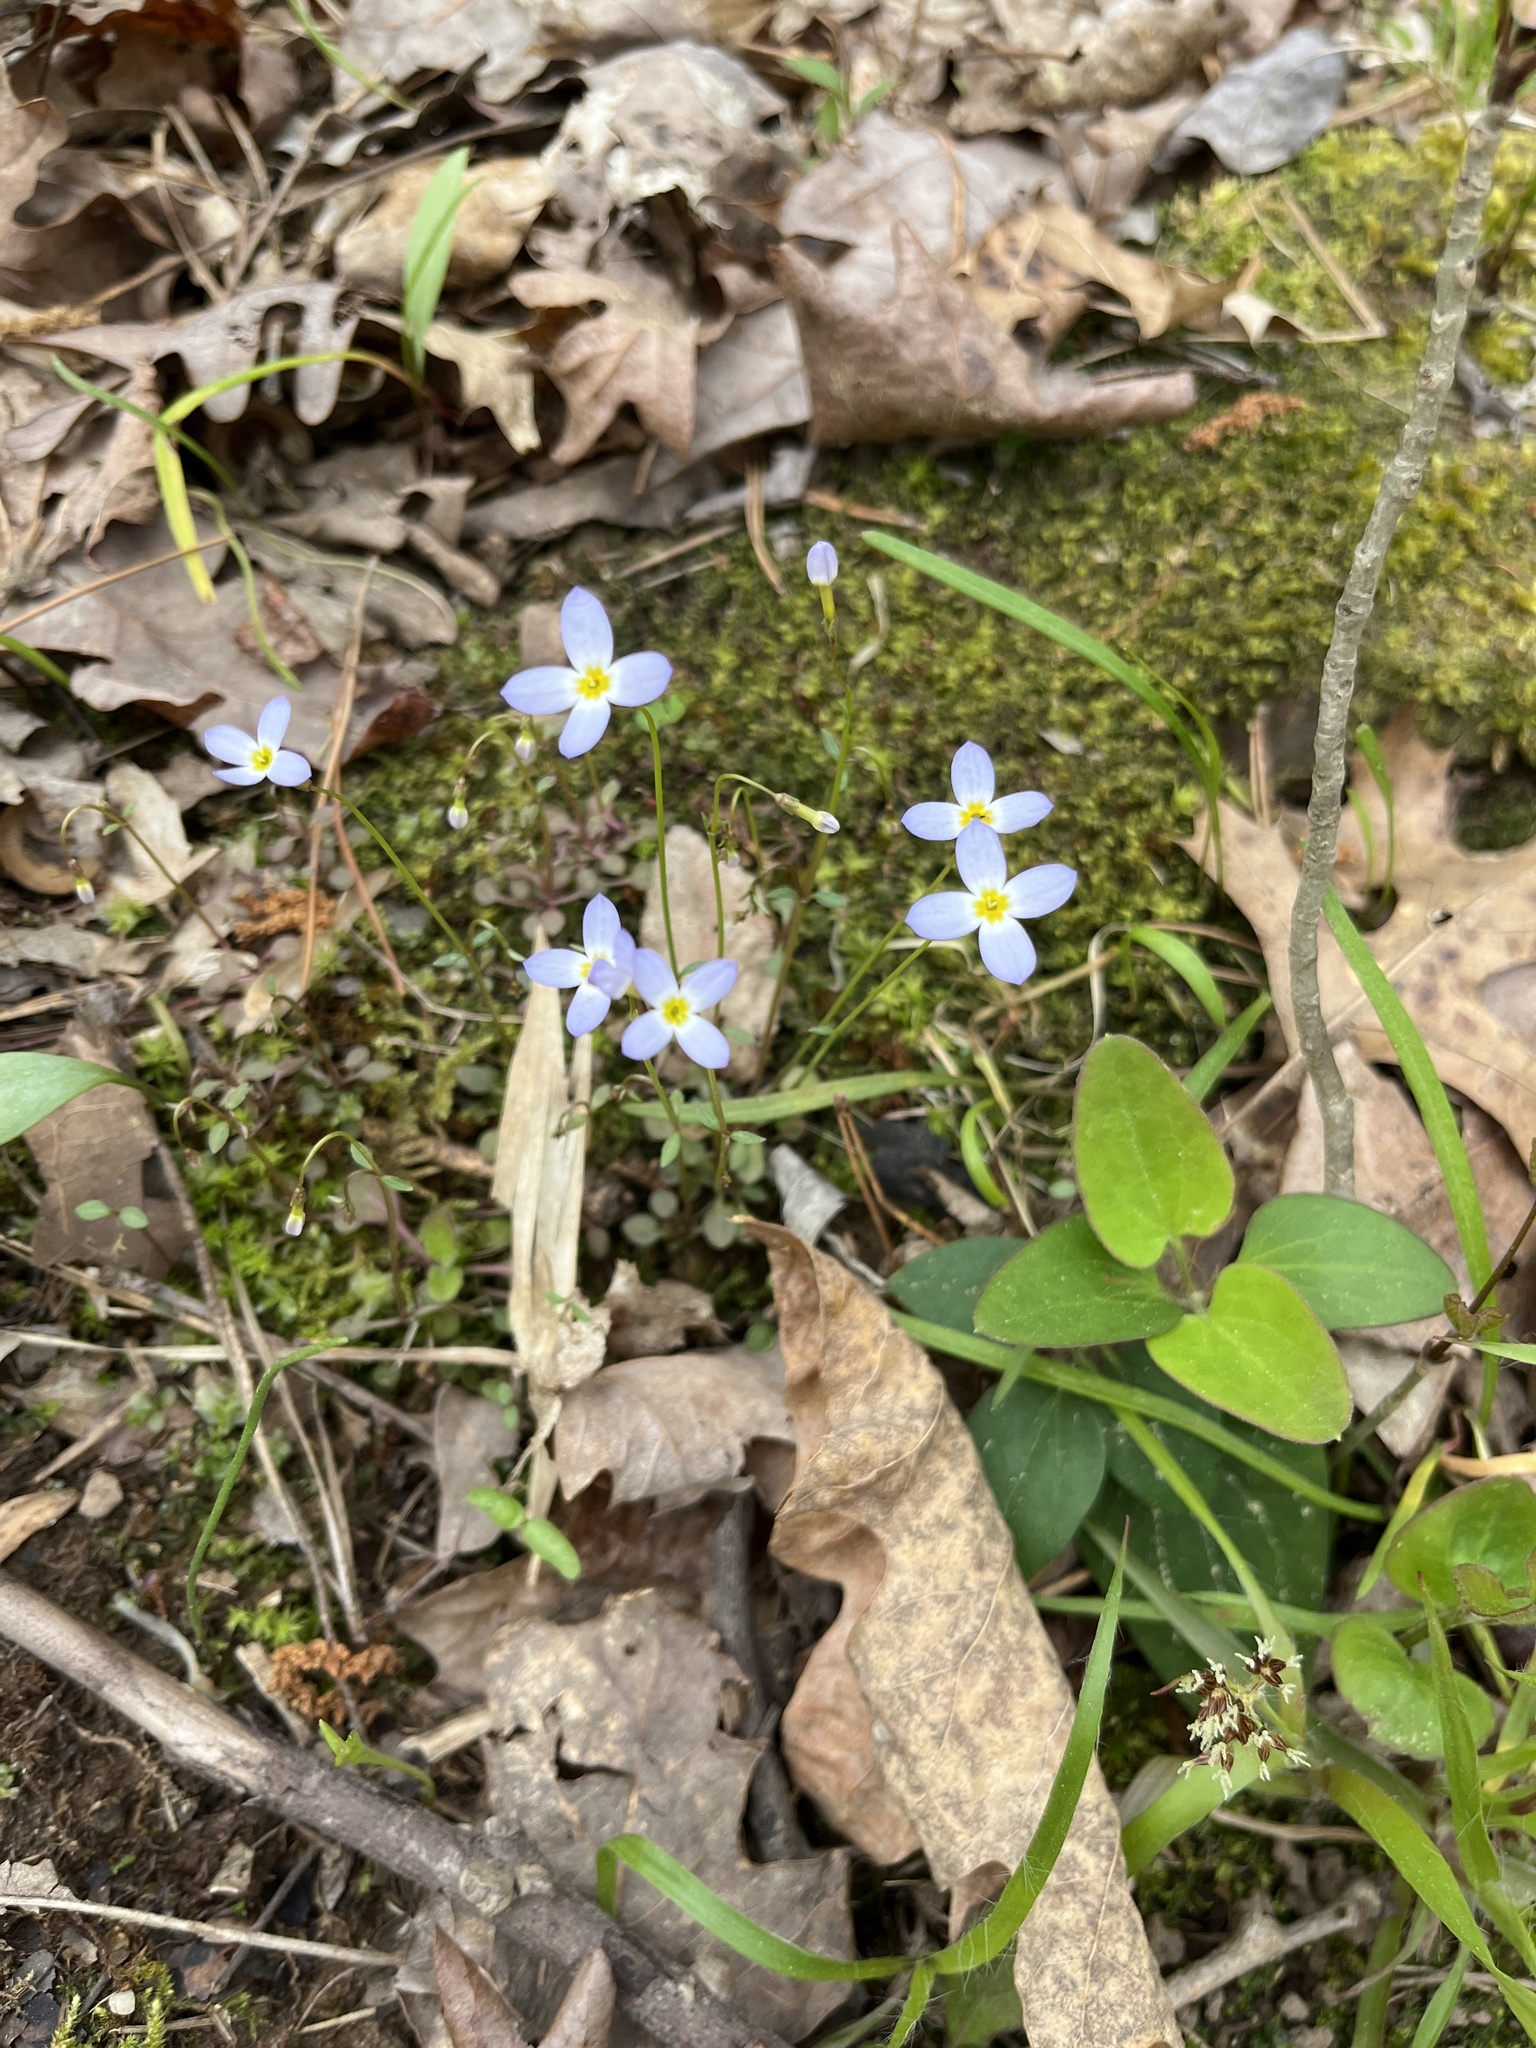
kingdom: Plantae
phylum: Tracheophyta
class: Magnoliopsida
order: Gentianales
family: Rubiaceae
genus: Houstonia
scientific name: Houstonia caerulea
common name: Bluets
